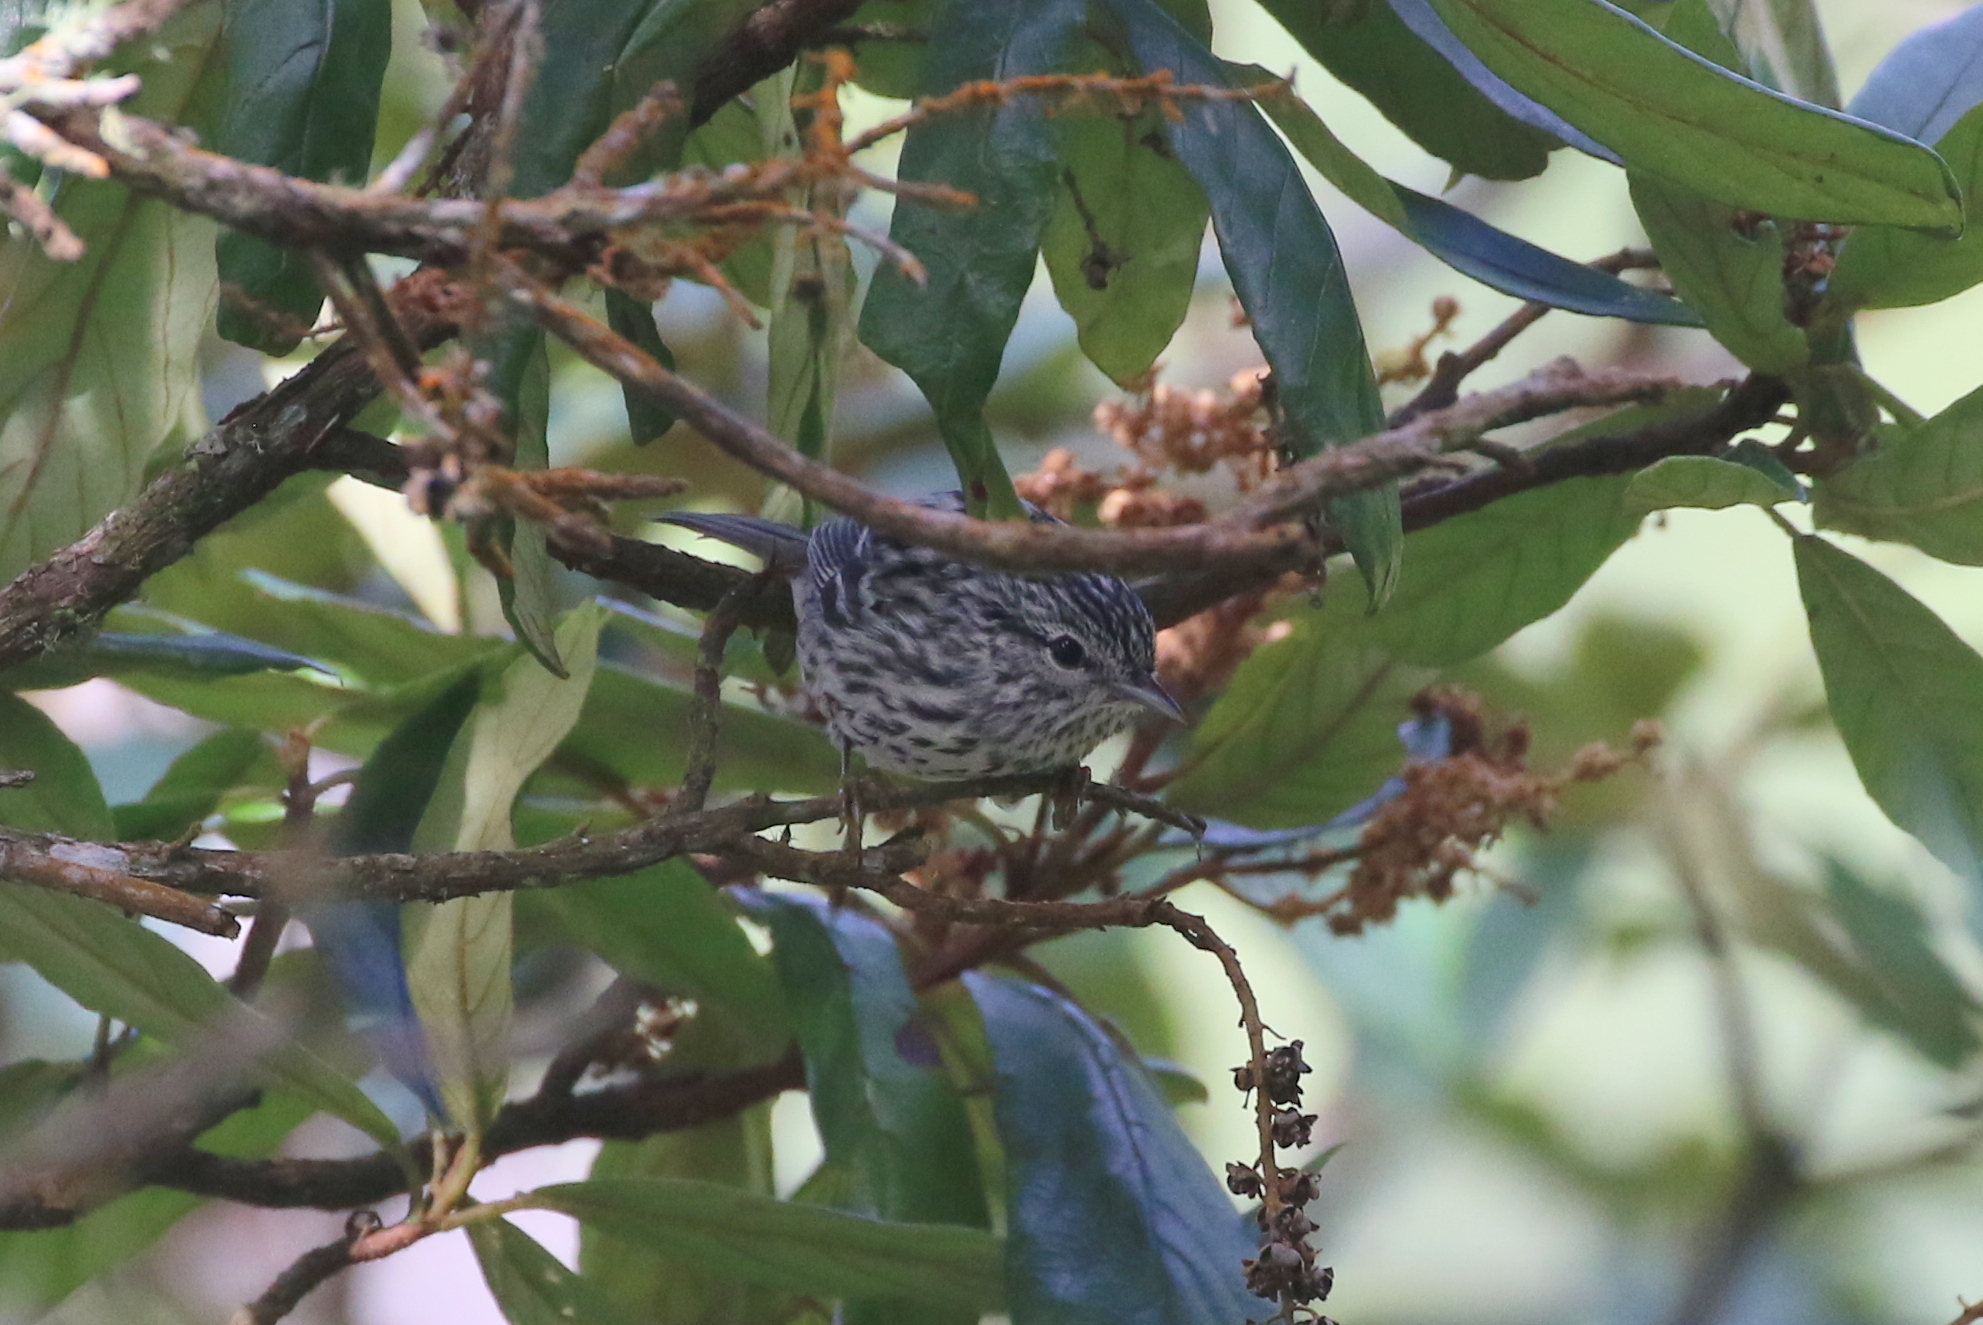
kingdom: Animalia
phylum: Chordata
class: Aves
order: Passeriformes
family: Parulidae
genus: Setophaga
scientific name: Setophaga pharetra
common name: Arrowhead warbler
